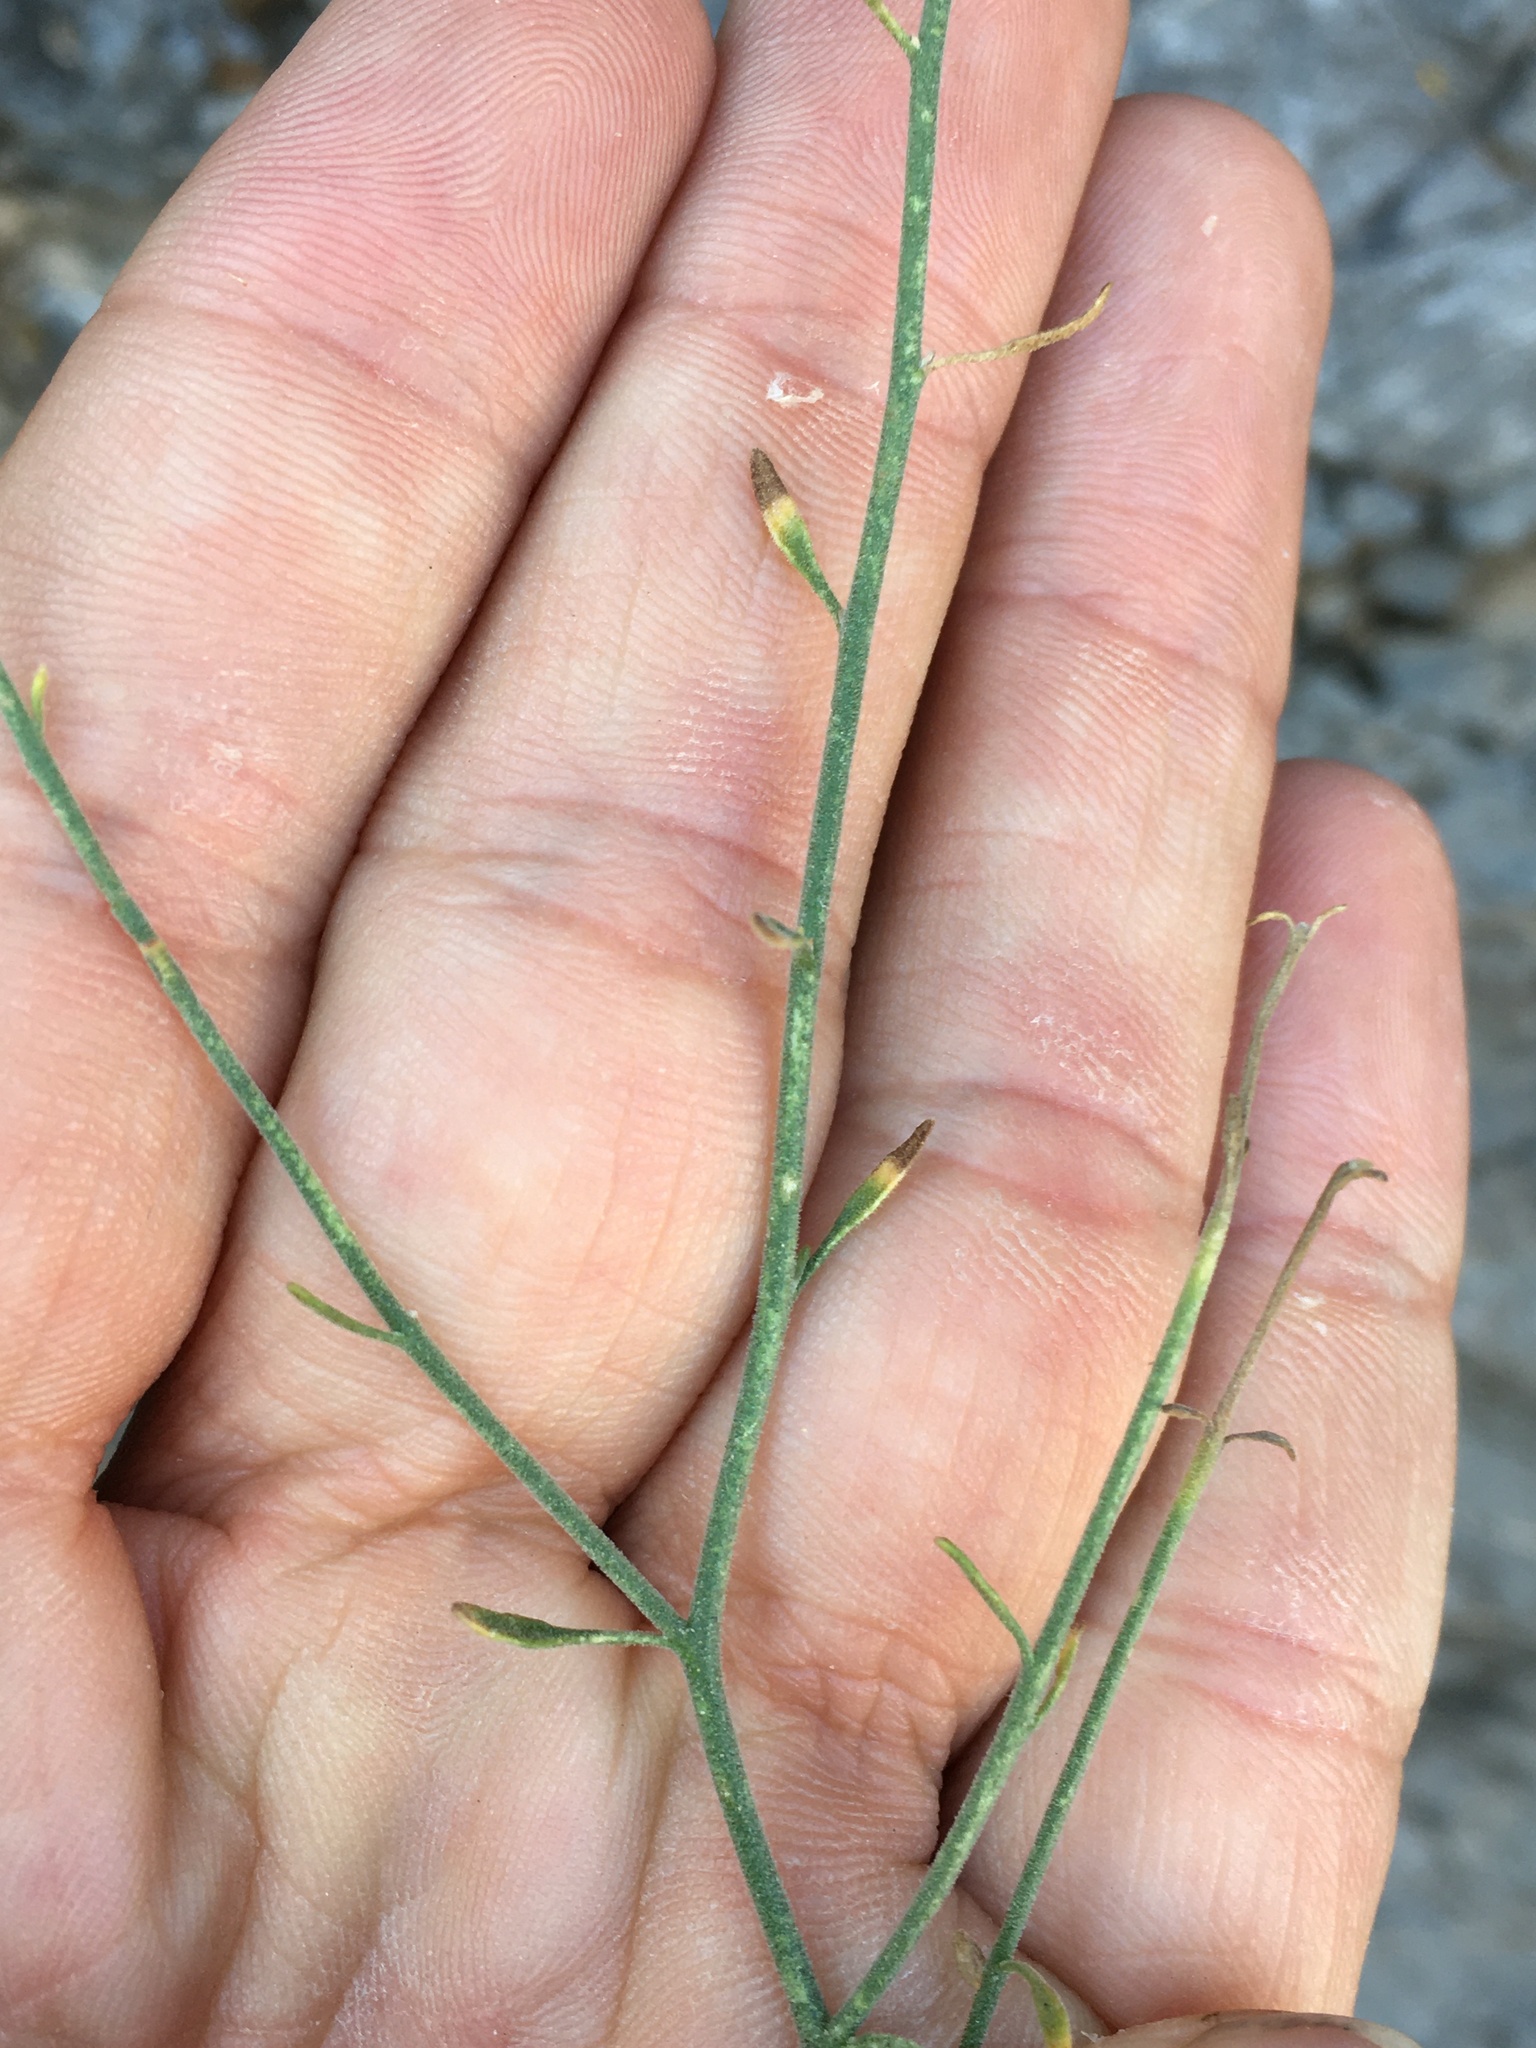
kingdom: Plantae
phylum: Tracheophyta
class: Magnoliopsida
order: Asterales
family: Asteraceae
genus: Laphamia
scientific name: Laphamia megalocephala
